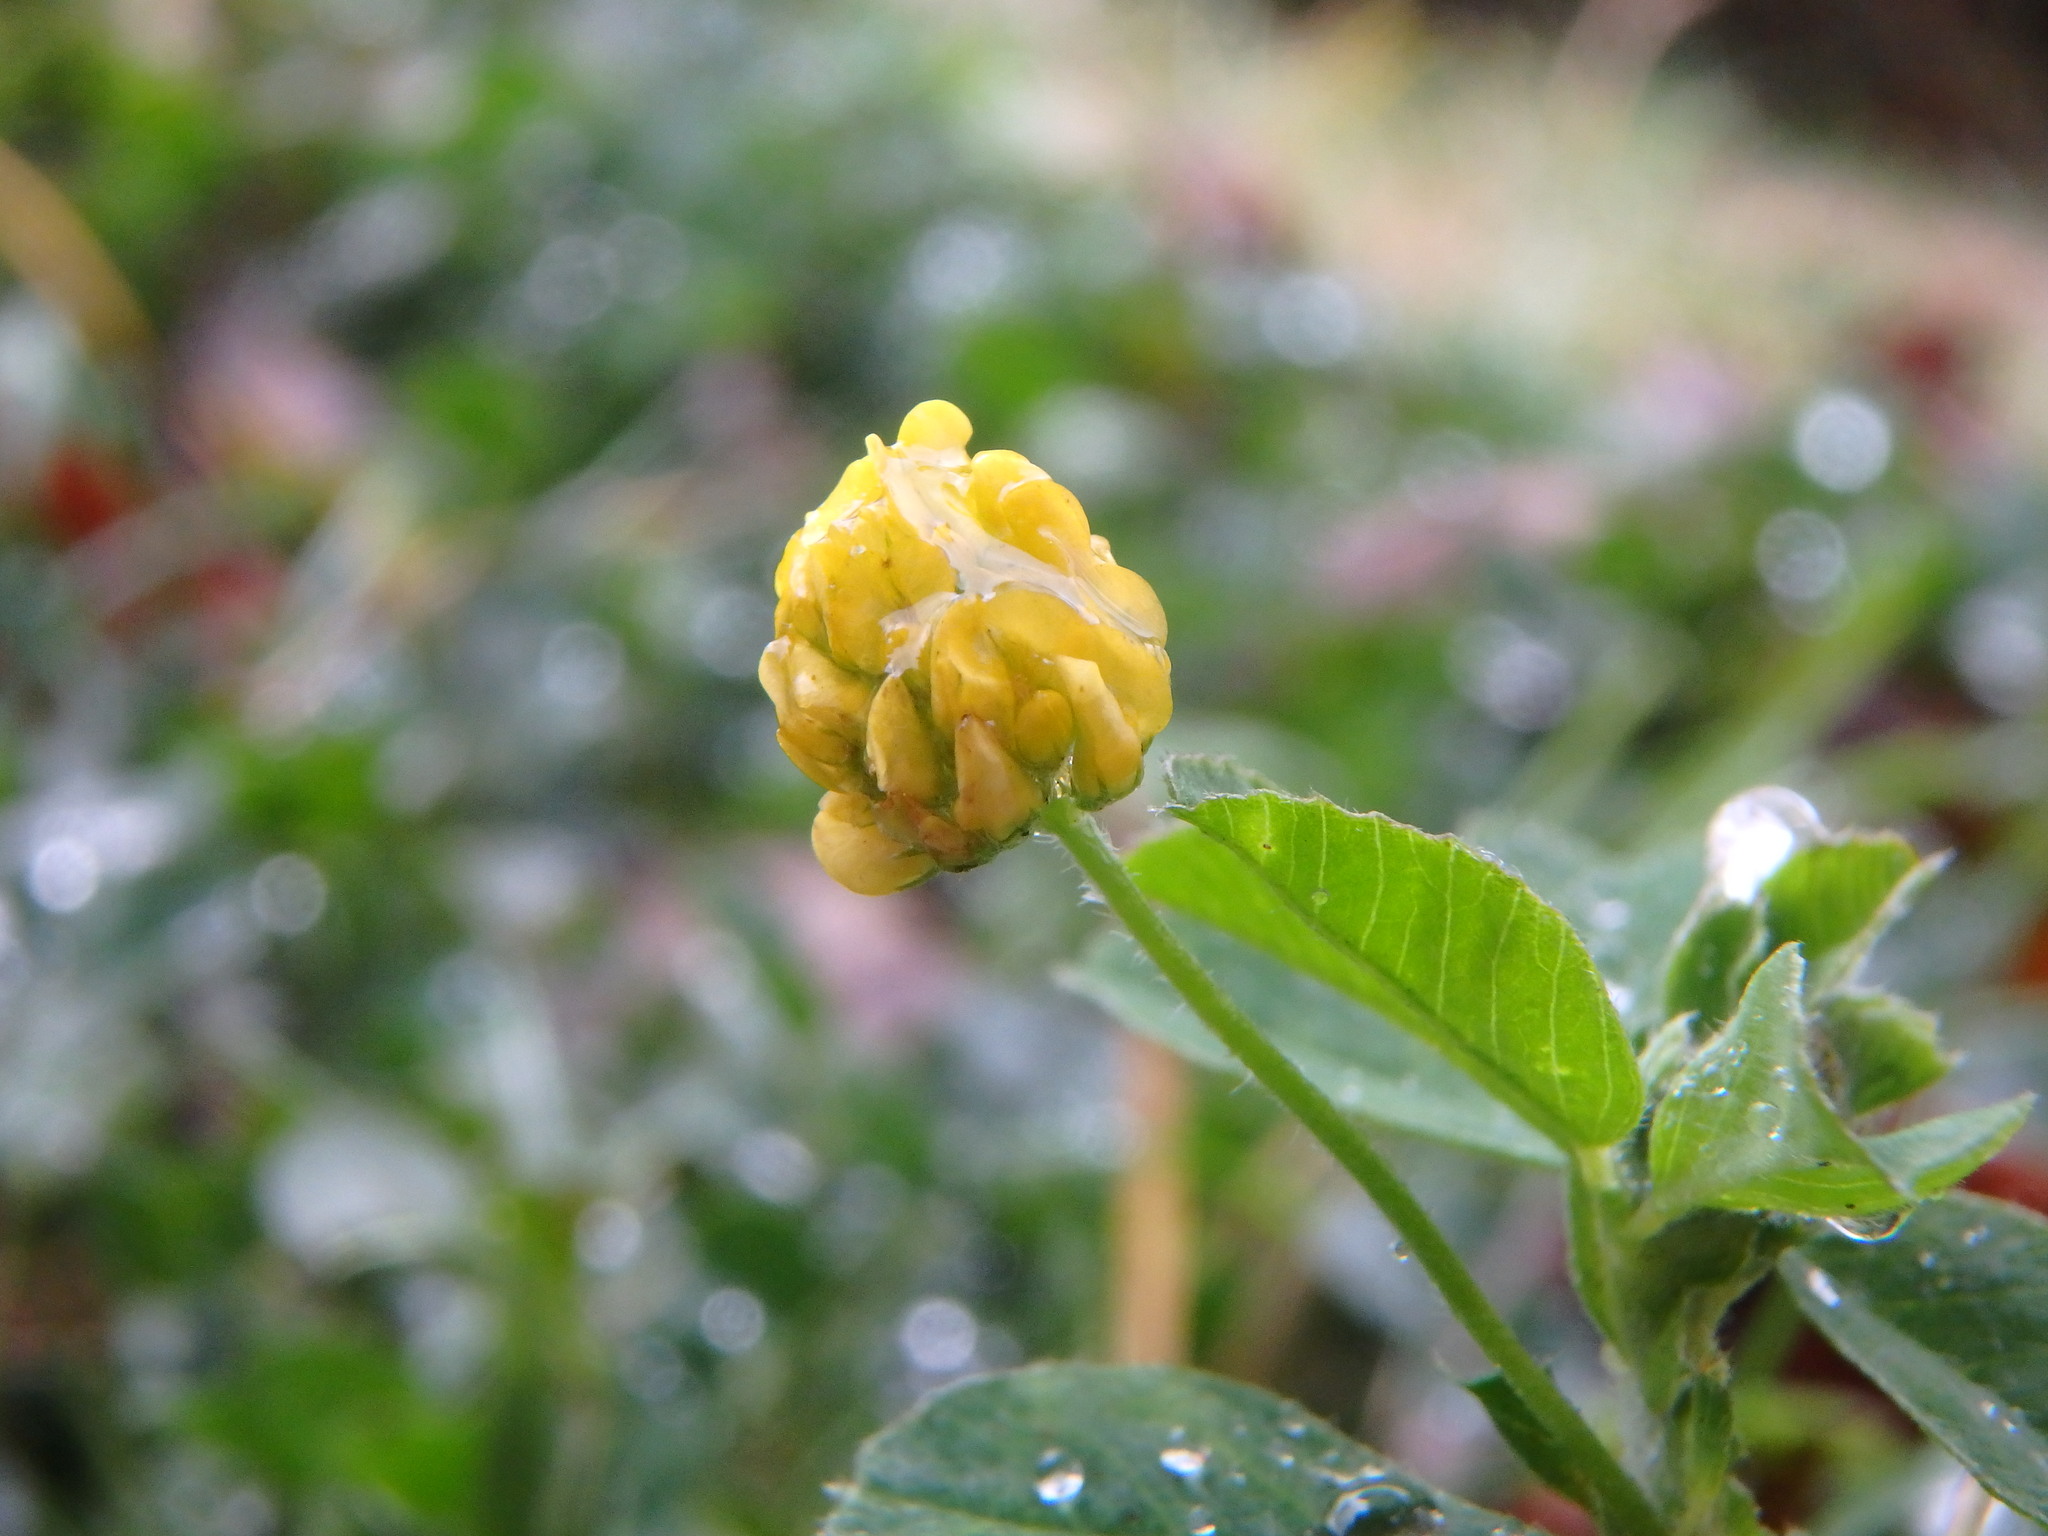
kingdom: Plantae
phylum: Tracheophyta
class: Magnoliopsida
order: Fabales
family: Fabaceae
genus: Medicago
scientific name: Medicago lupulina
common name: Black medick
